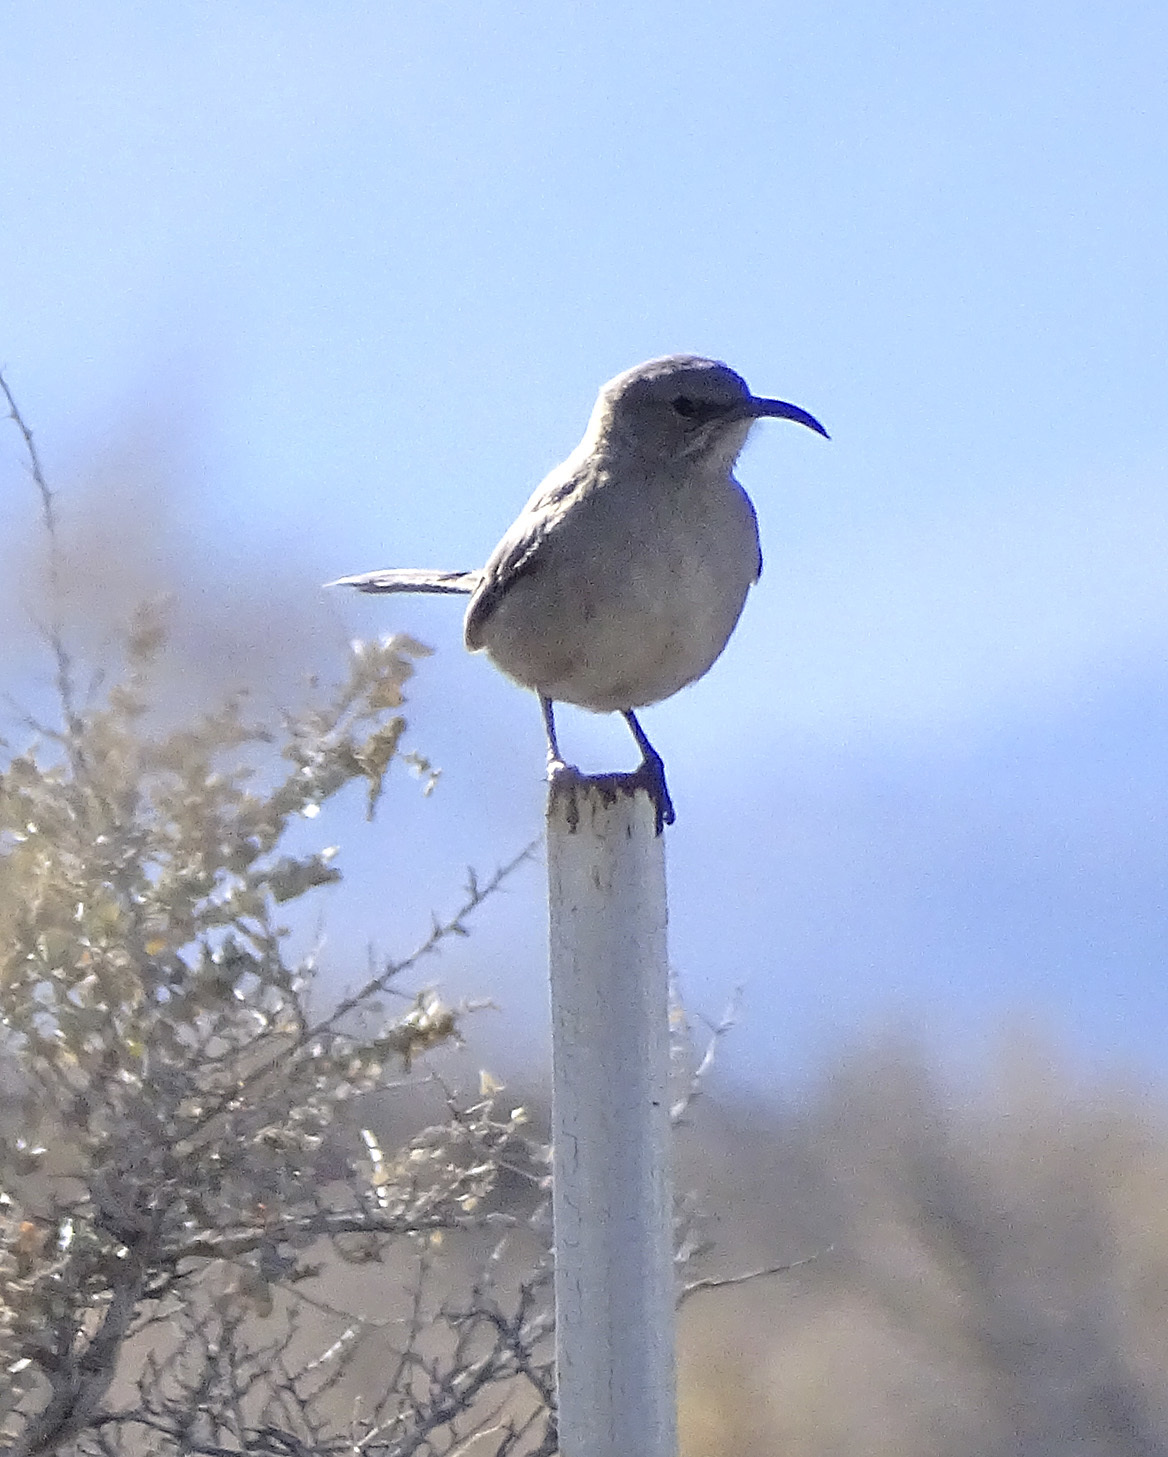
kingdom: Animalia
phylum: Chordata
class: Aves
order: Passeriformes
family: Mimidae
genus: Toxostoma
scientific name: Toxostoma lecontei
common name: Le conte's thrasher
